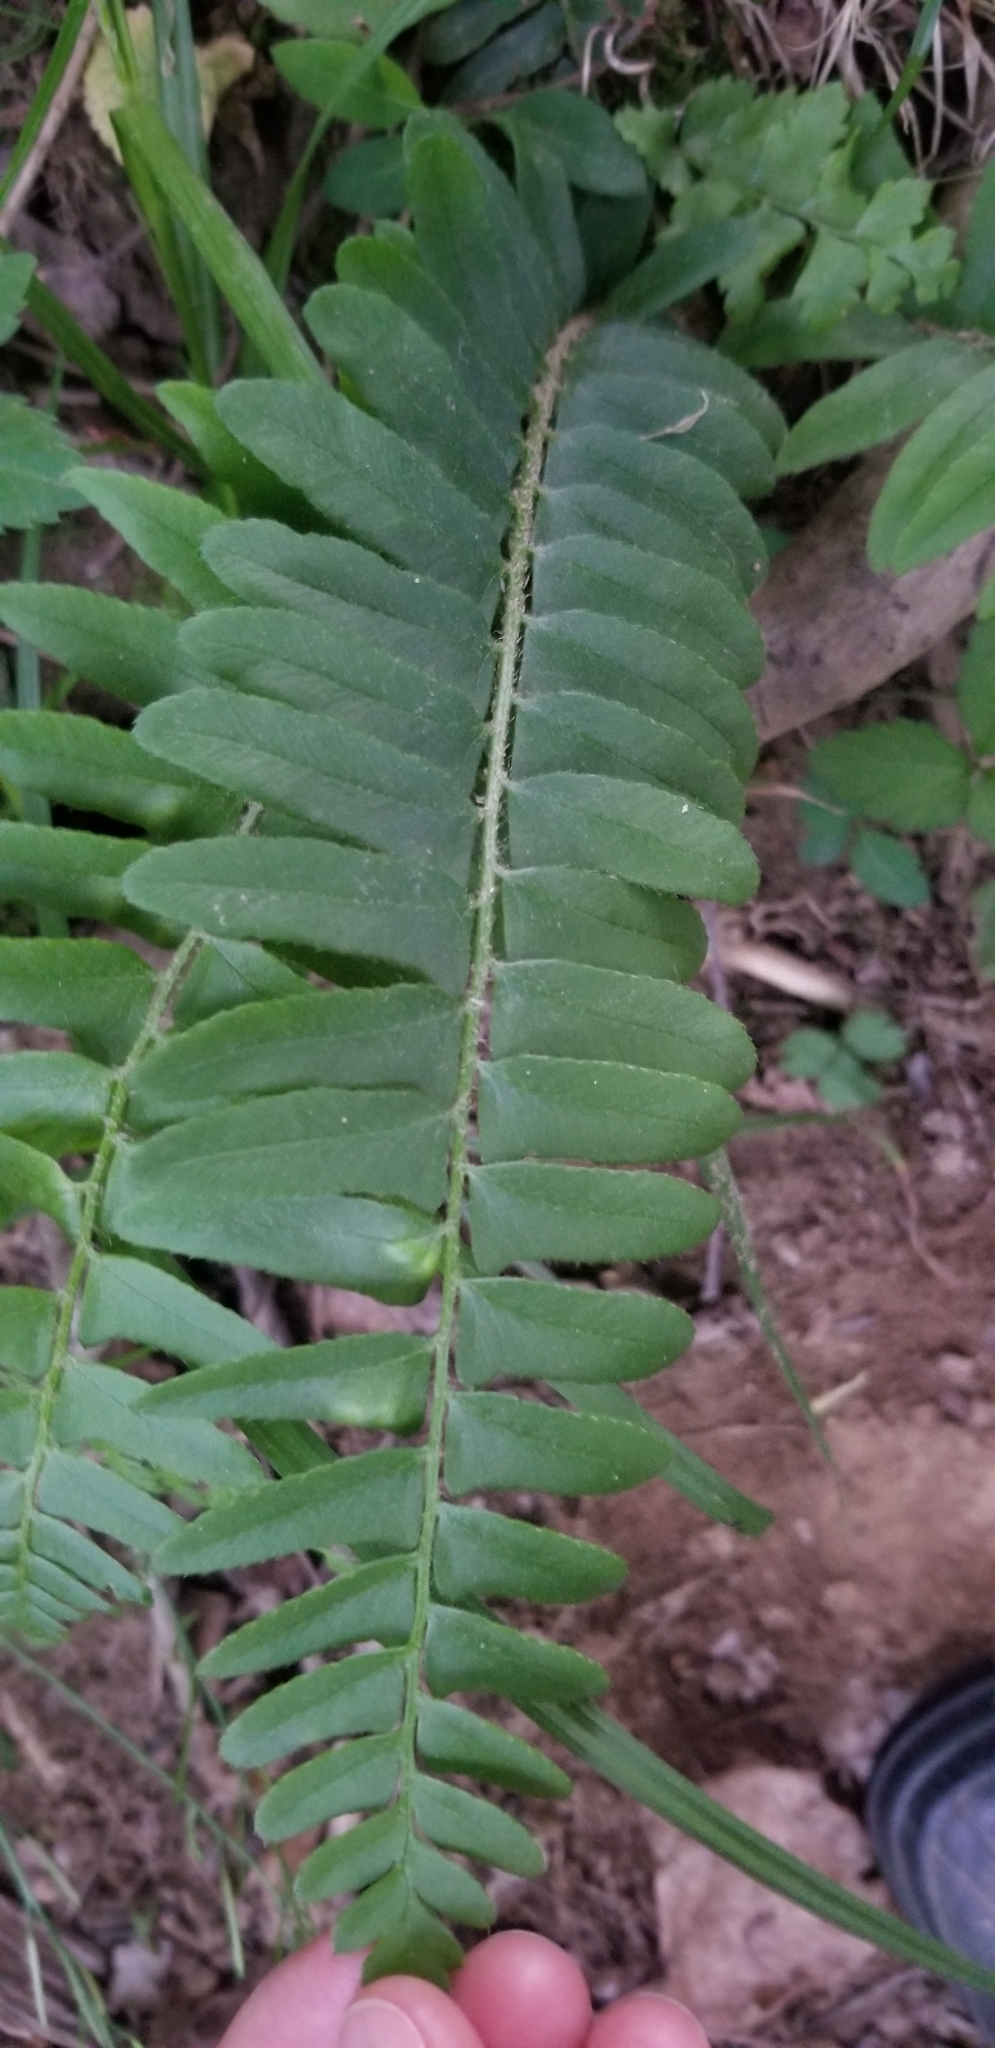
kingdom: Plantae
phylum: Tracheophyta
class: Polypodiopsida
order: Polypodiales
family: Dryopteridaceae
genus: Polystichum
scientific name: Polystichum acrostichoides
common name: Christmas fern
